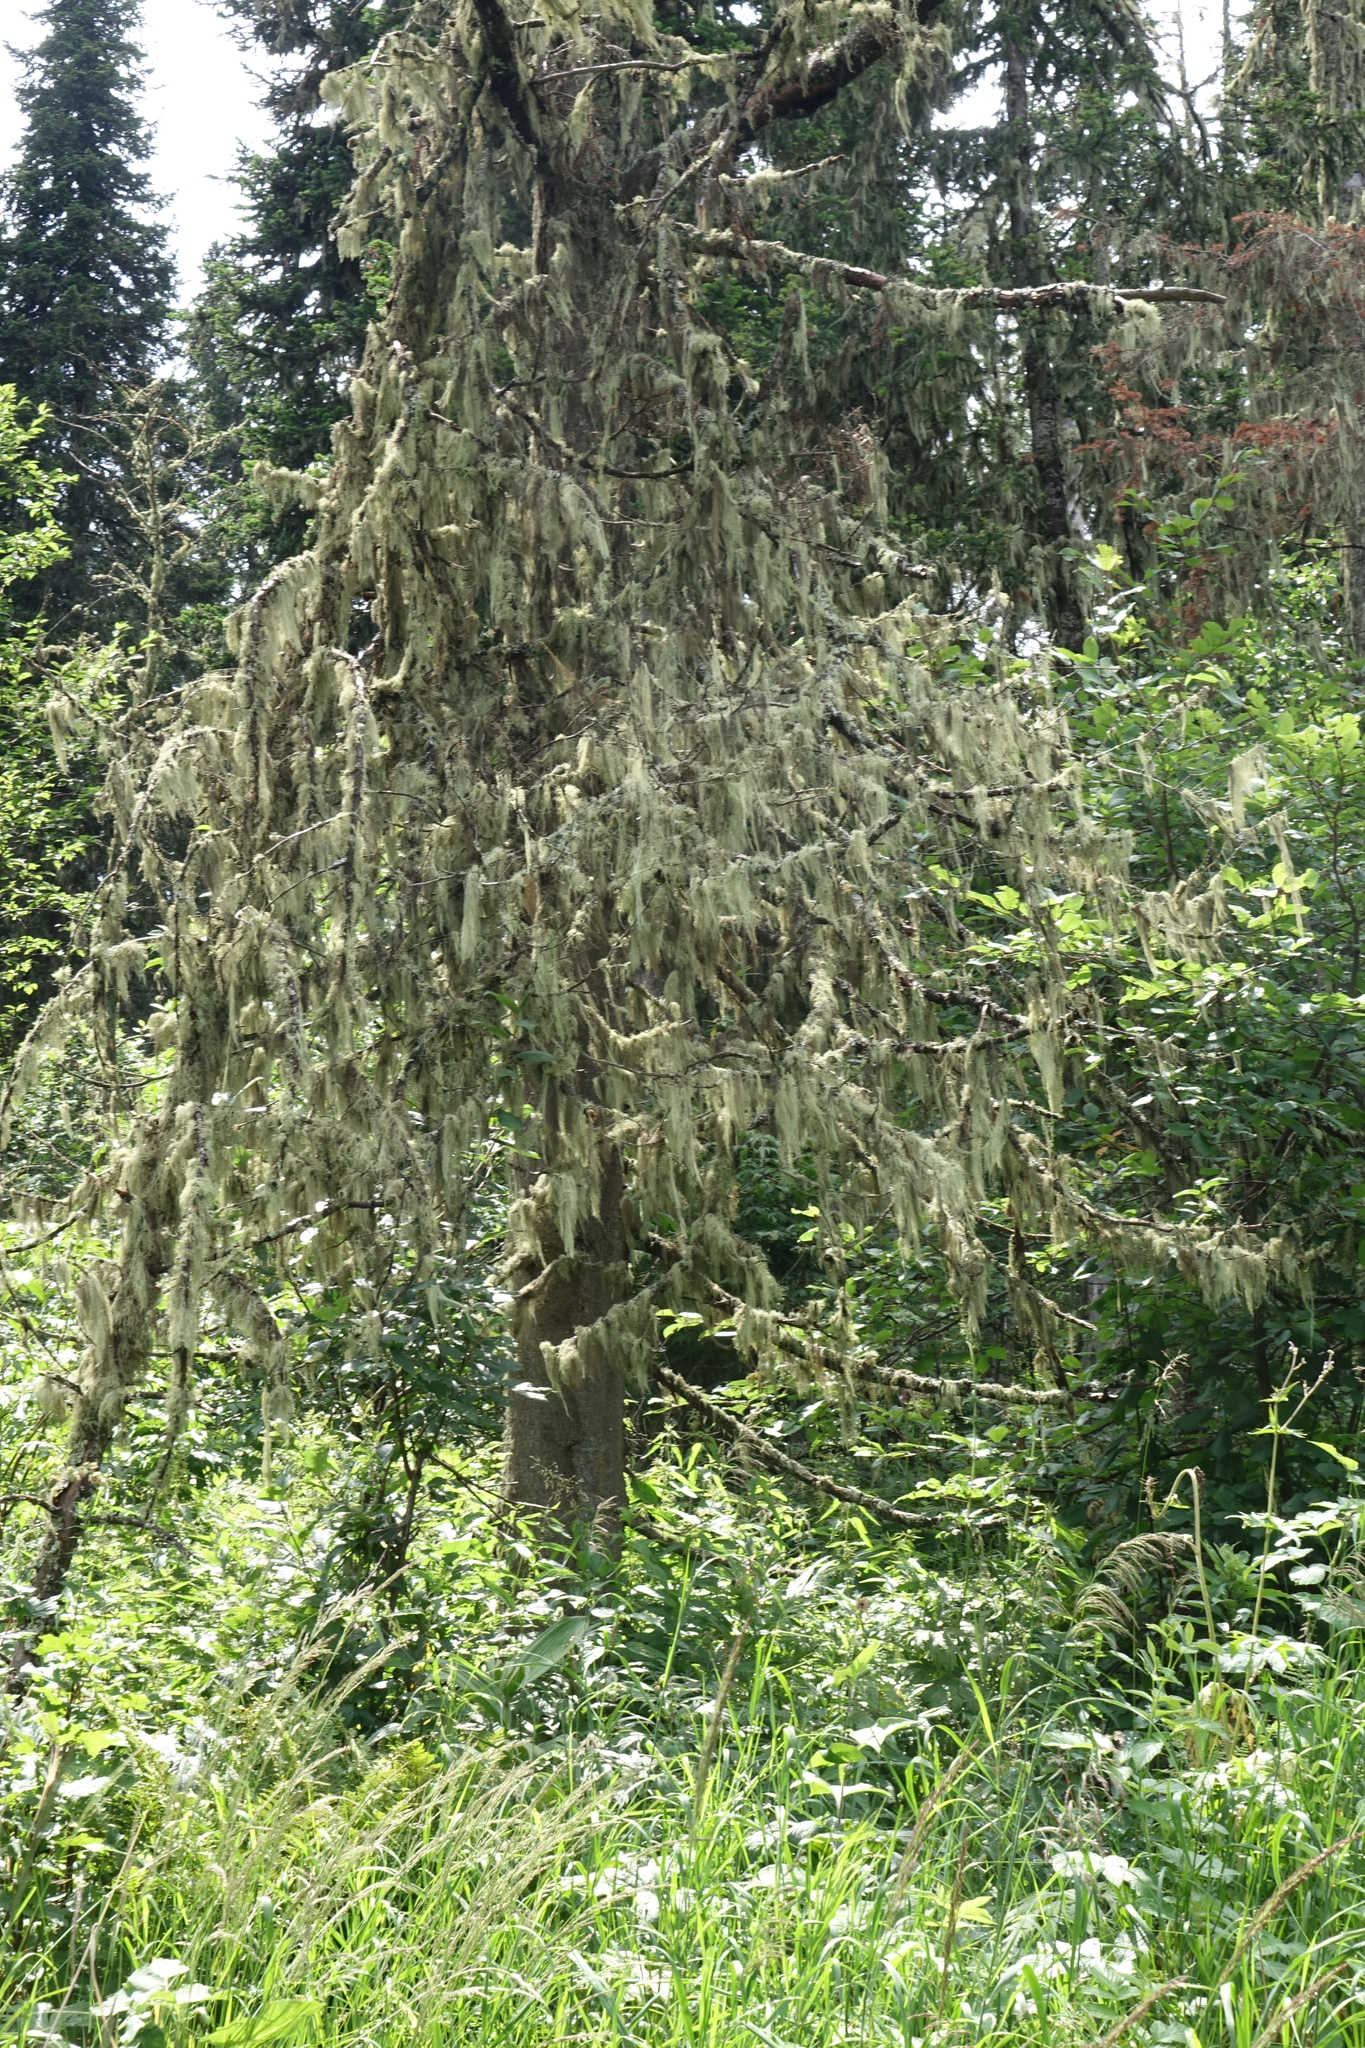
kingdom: Plantae
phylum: Tracheophyta
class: Pinopsida
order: Pinales
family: Pinaceae
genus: Abies
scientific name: Abies sibirica
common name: Siberian fir
